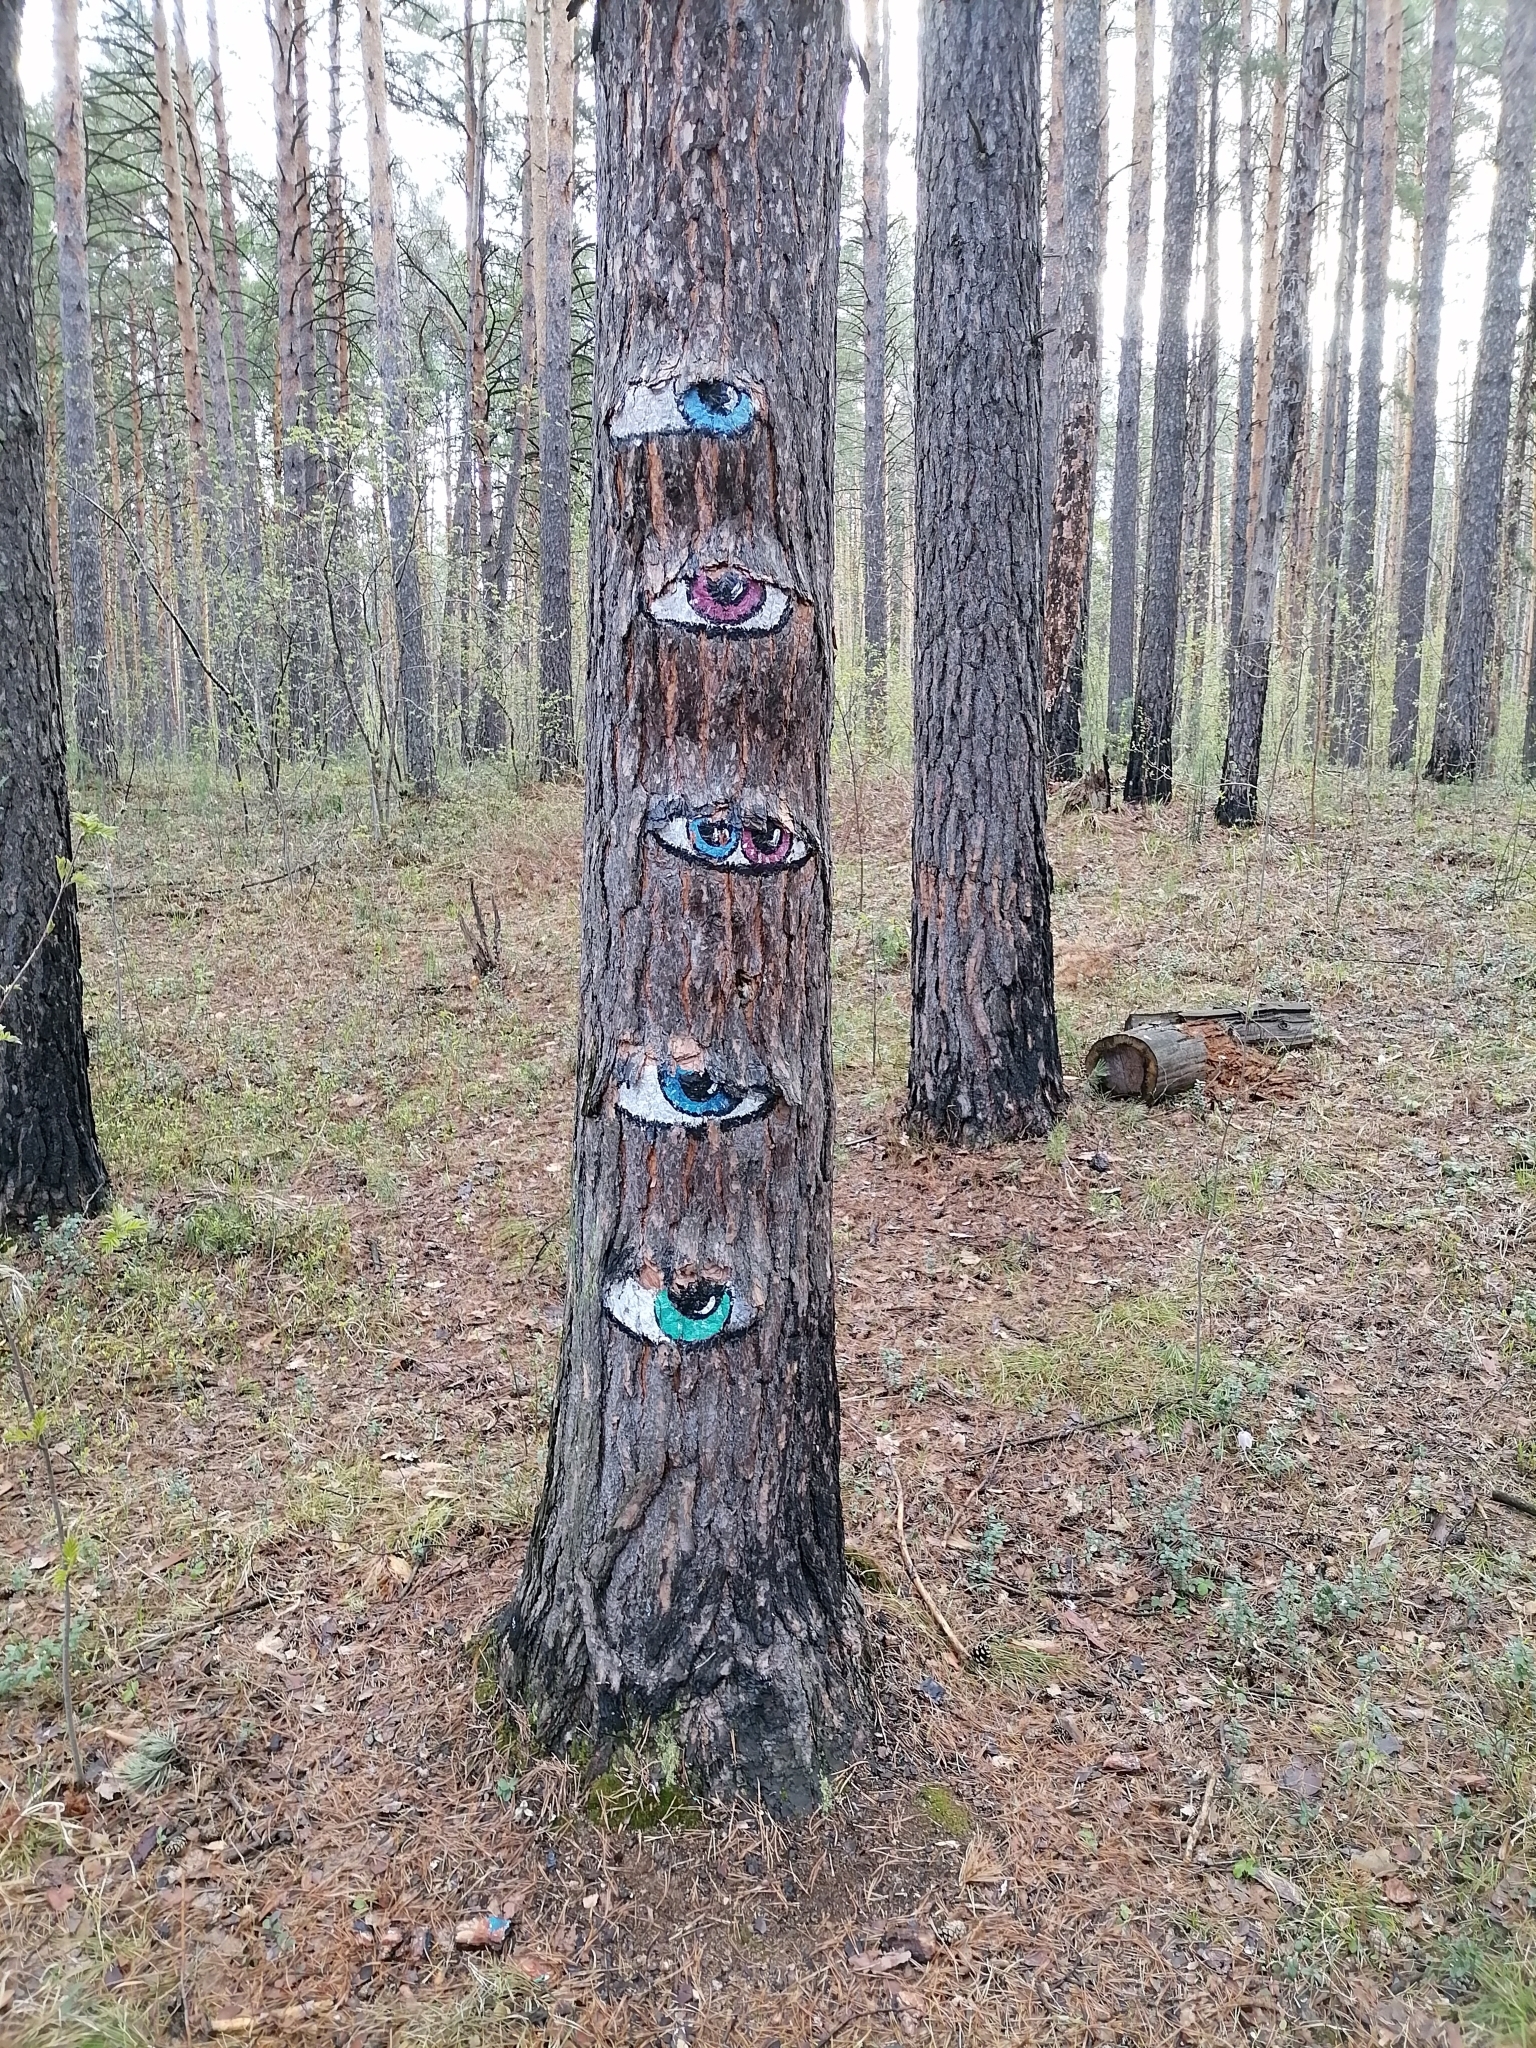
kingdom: Plantae
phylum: Tracheophyta
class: Pinopsida
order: Pinales
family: Pinaceae
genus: Pinus
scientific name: Pinus sylvestris
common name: Scots pine
